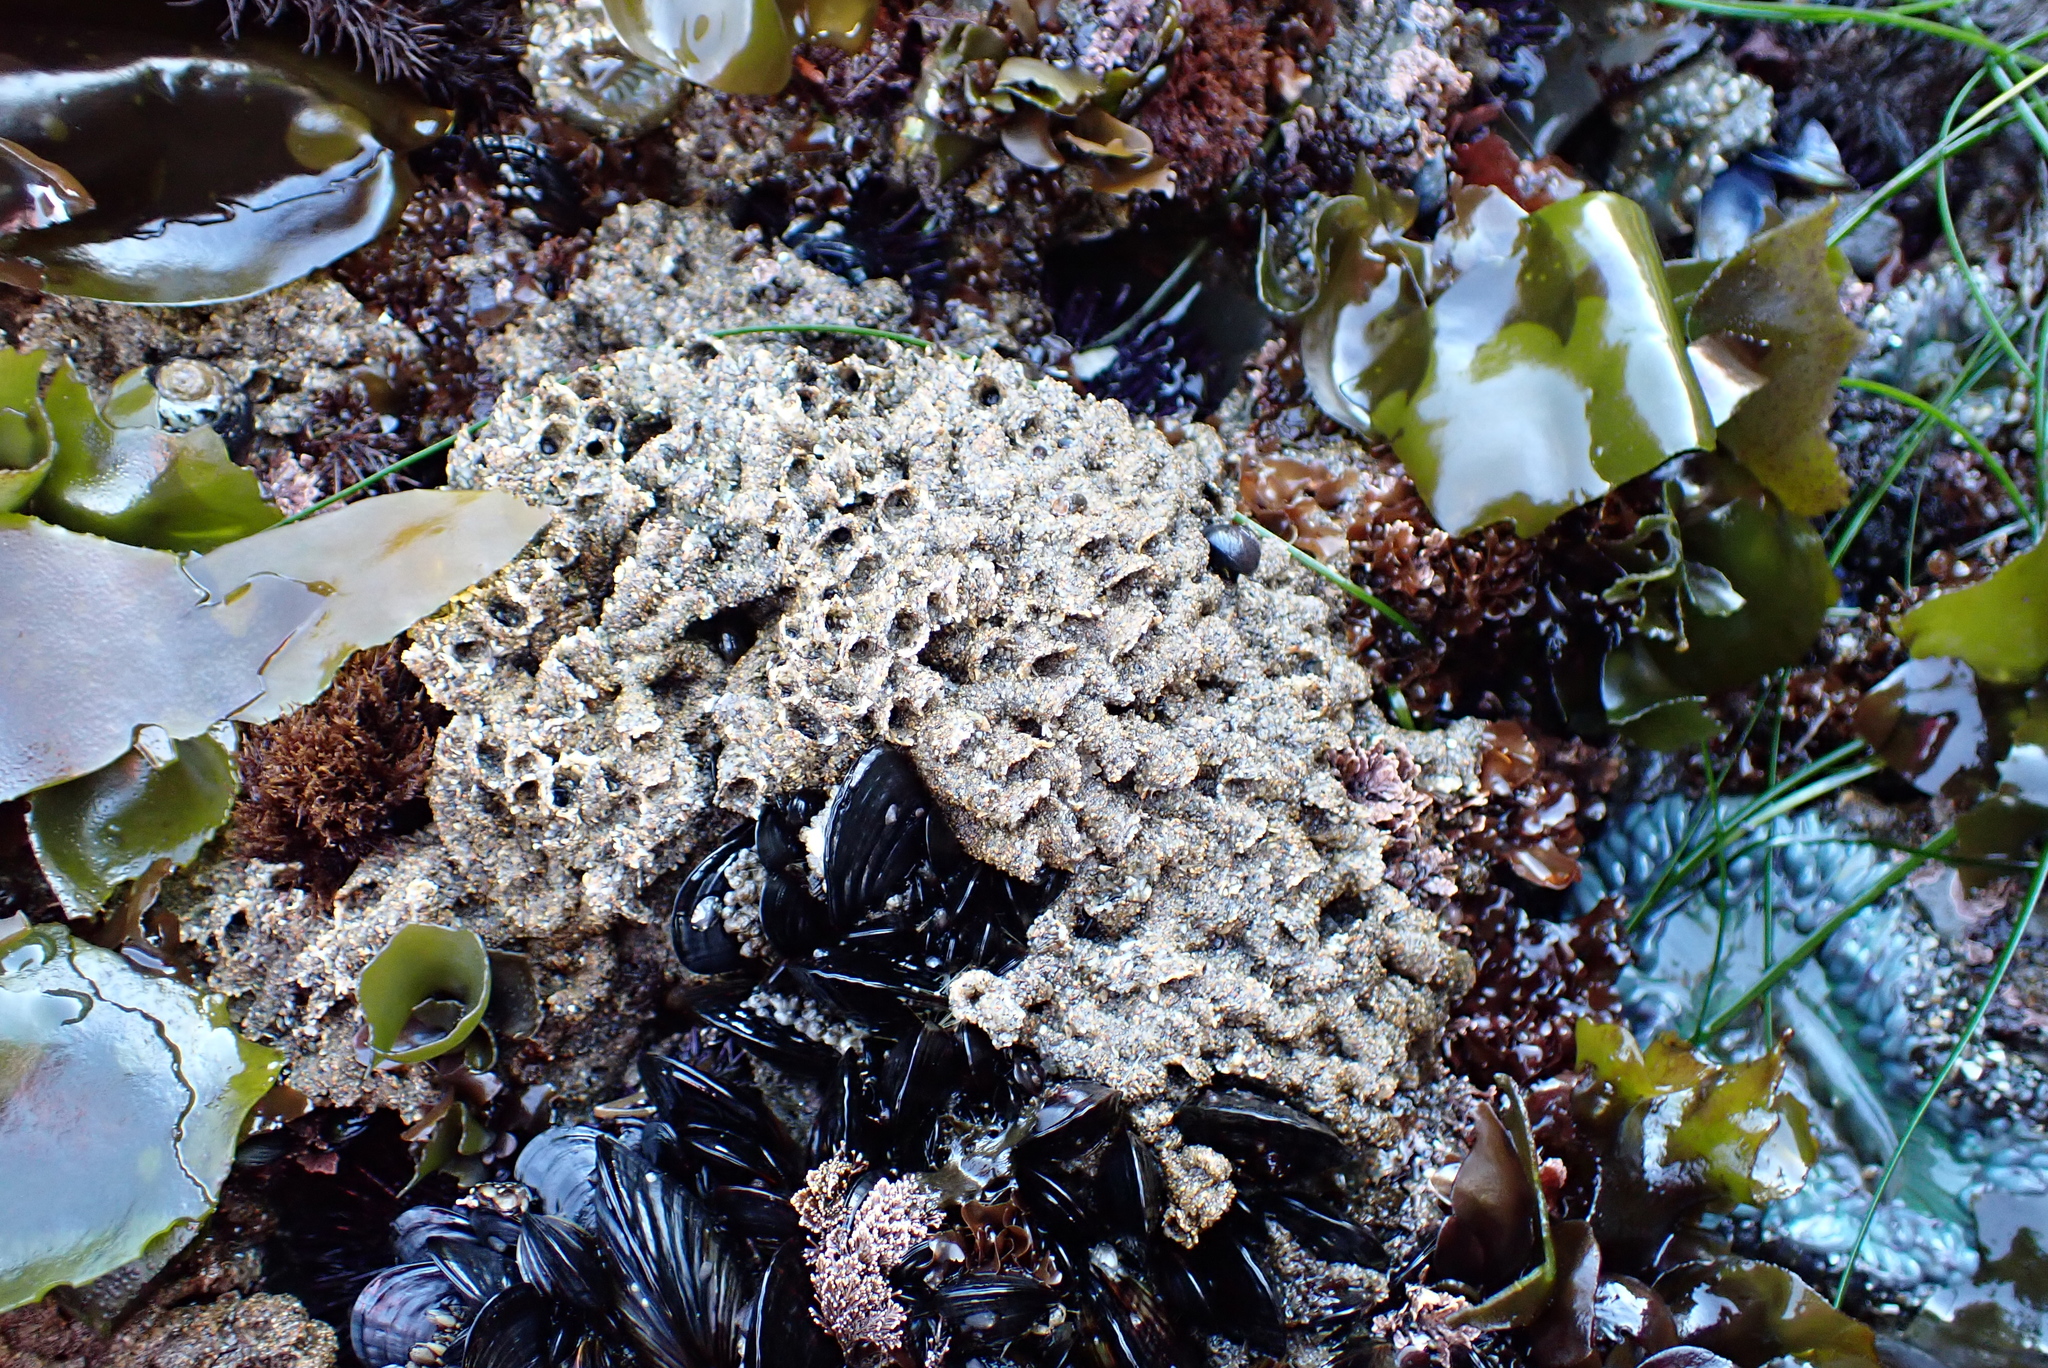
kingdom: Animalia
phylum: Annelida
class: Polychaeta
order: Sabellida
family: Sabellariidae
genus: Phragmatopoma
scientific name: Phragmatopoma californica
